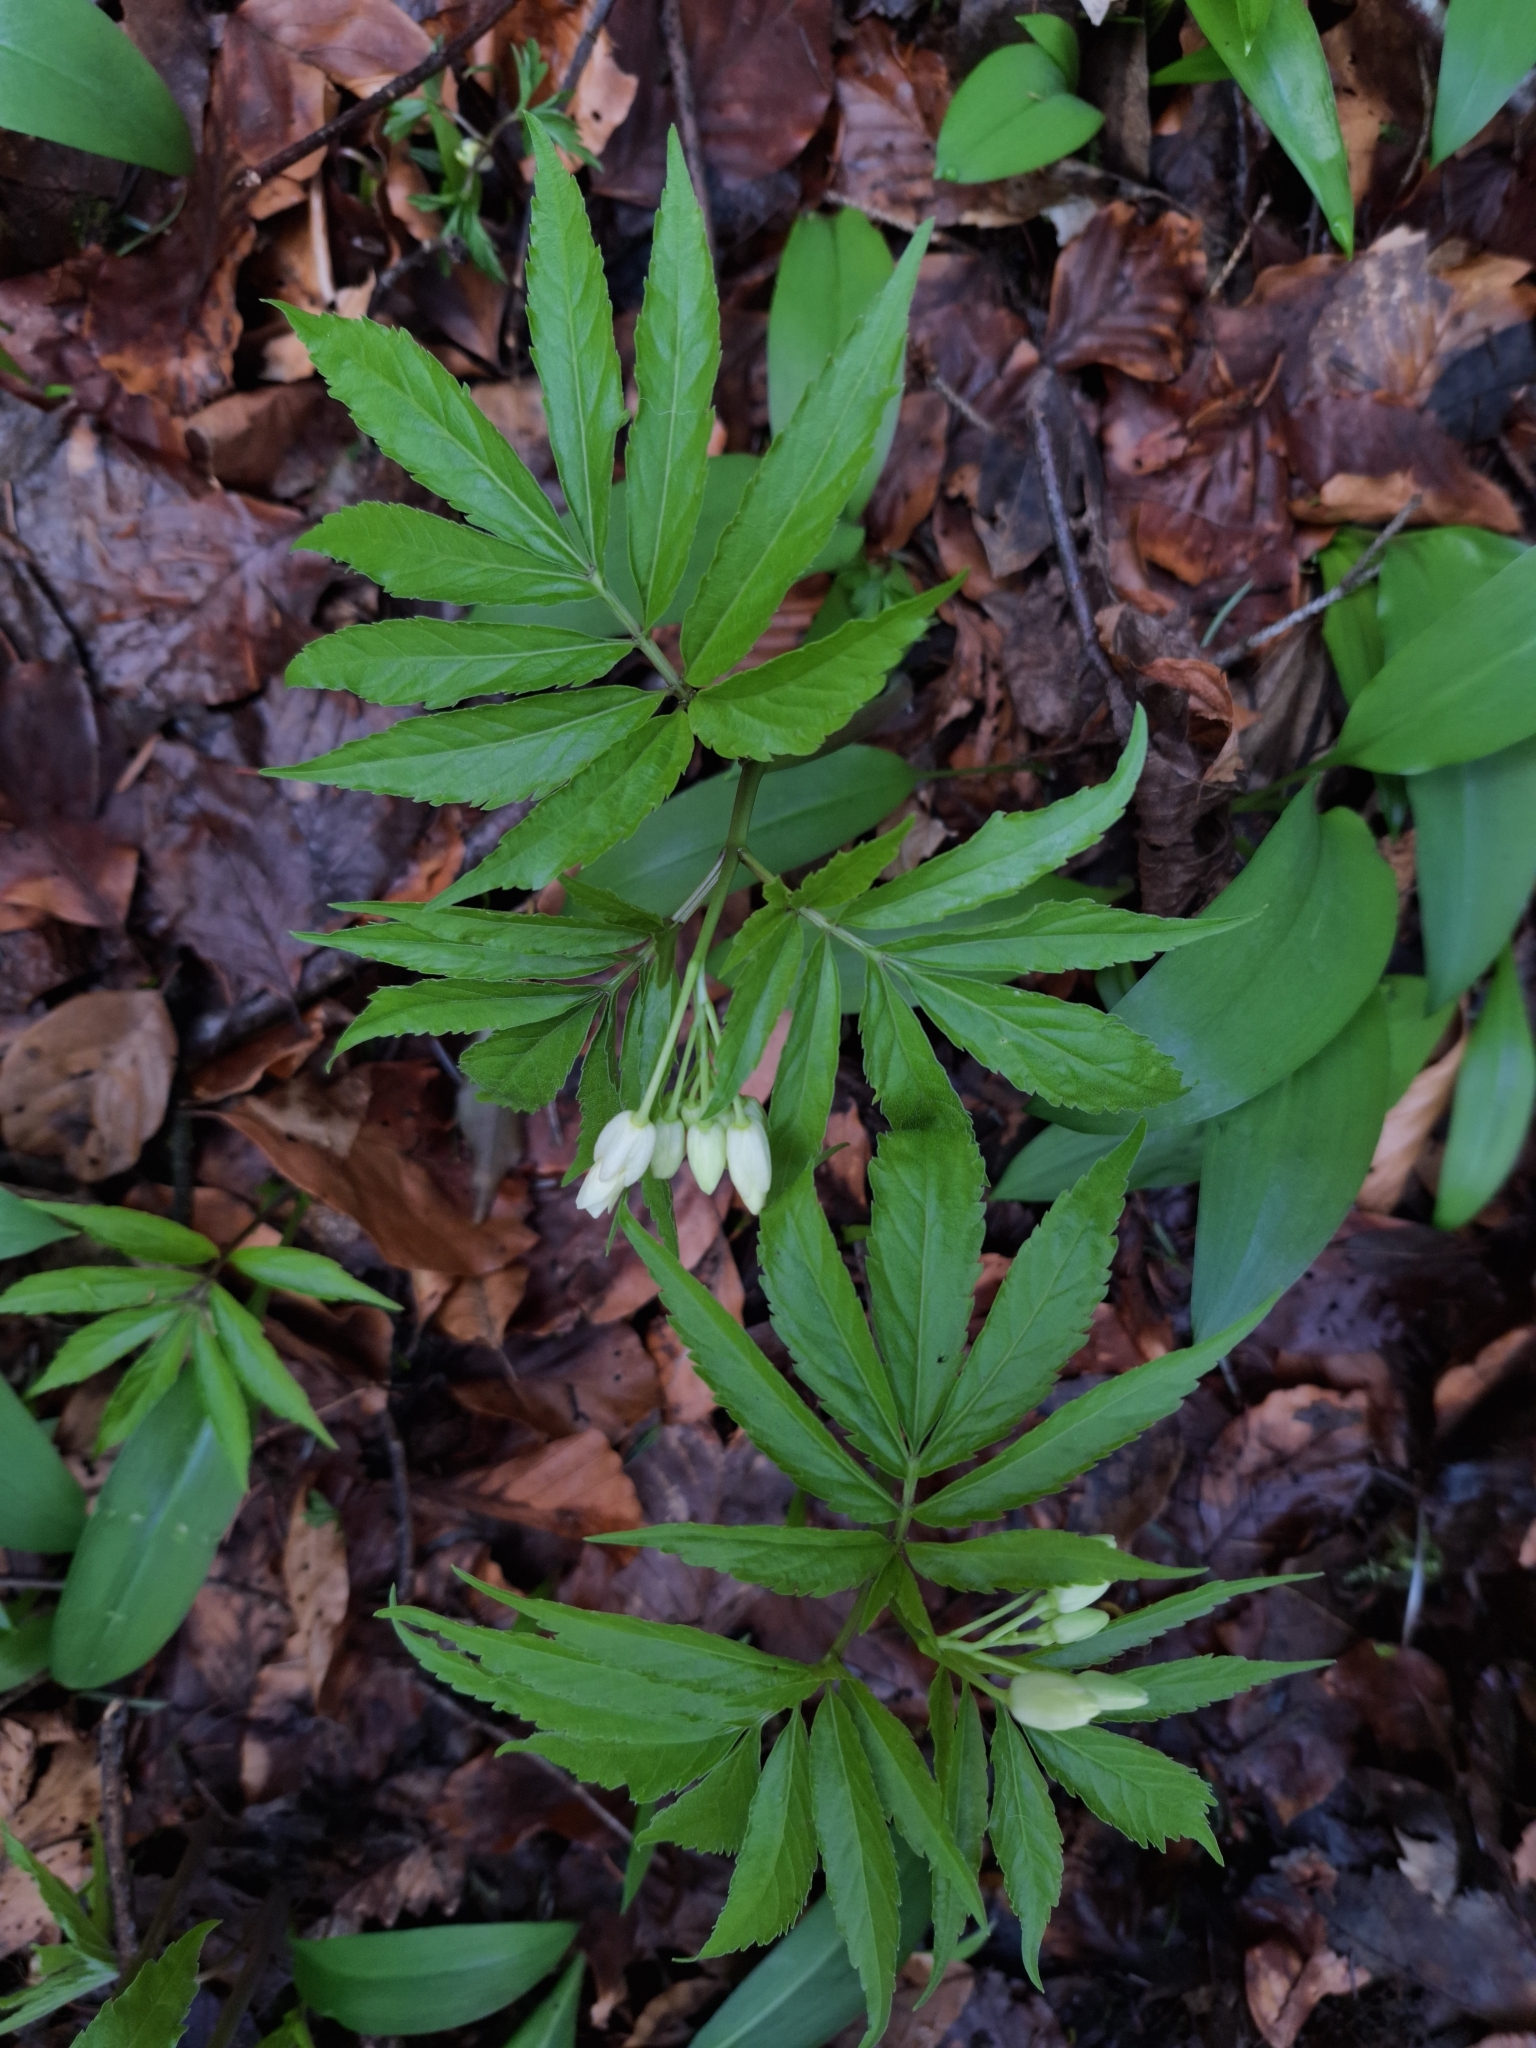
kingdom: Plantae
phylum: Tracheophyta
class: Magnoliopsida
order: Brassicales
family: Brassicaceae
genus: Cardamine
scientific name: Cardamine heptaphylla
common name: Pinnate coralroot
